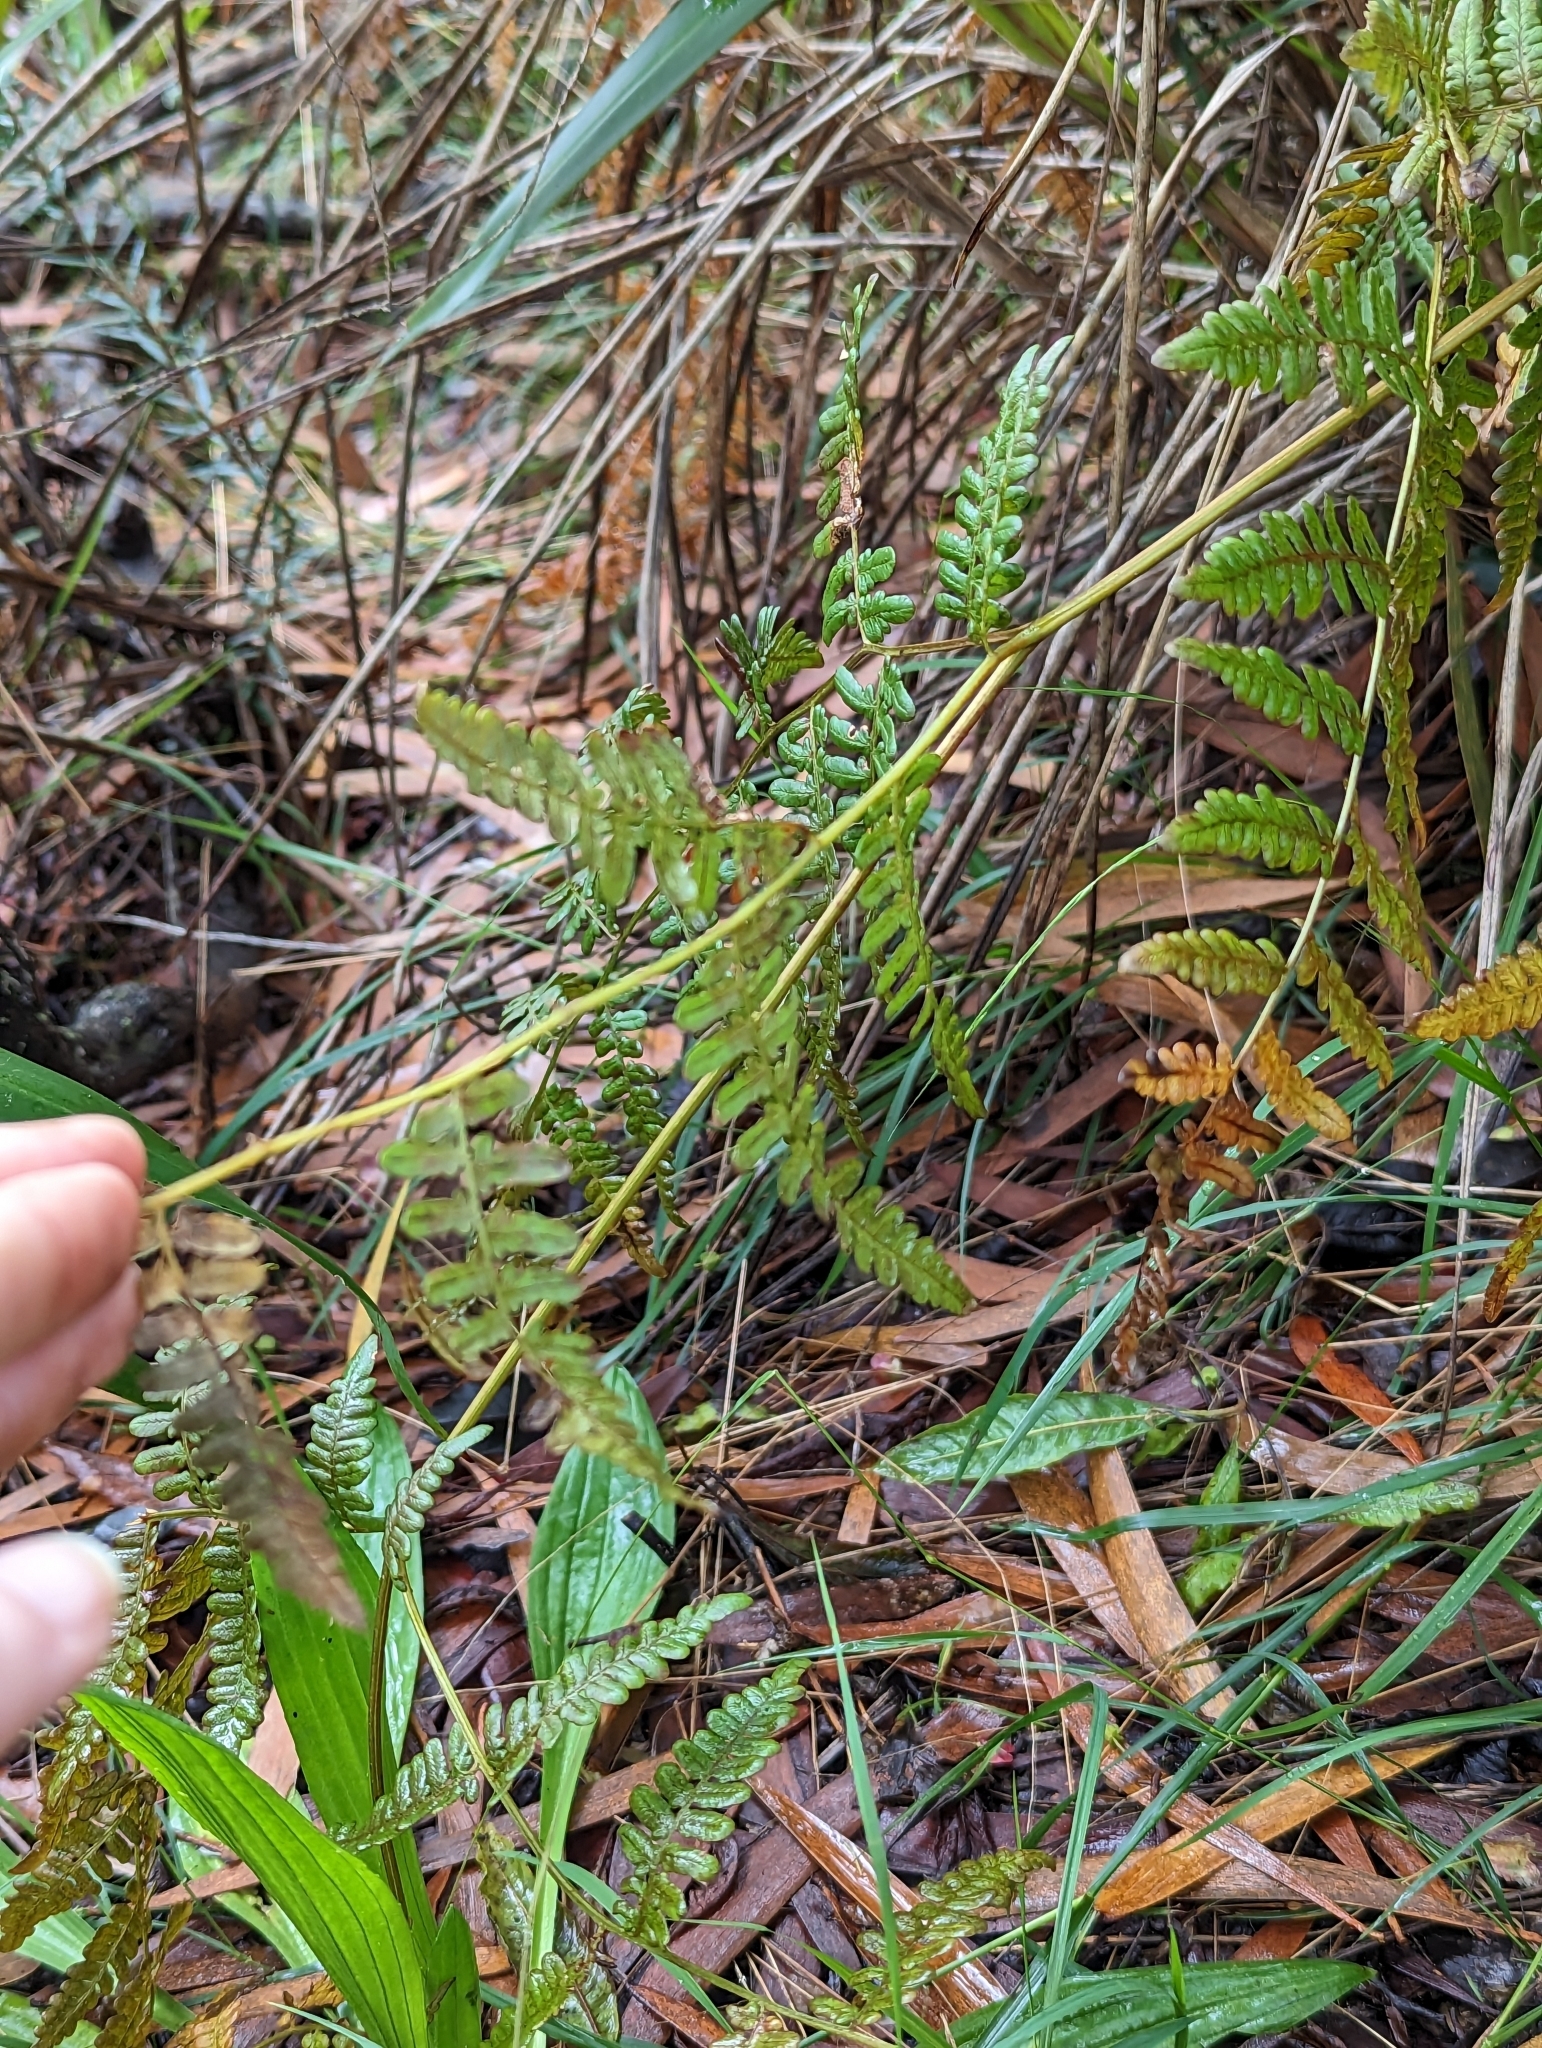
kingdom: Plantae
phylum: Tracheophyta
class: Polypodiopsida
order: Polypodiales
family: Dennstaedtiaceae
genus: Pteridium
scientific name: Pteridium aquilinum
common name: Bracken
